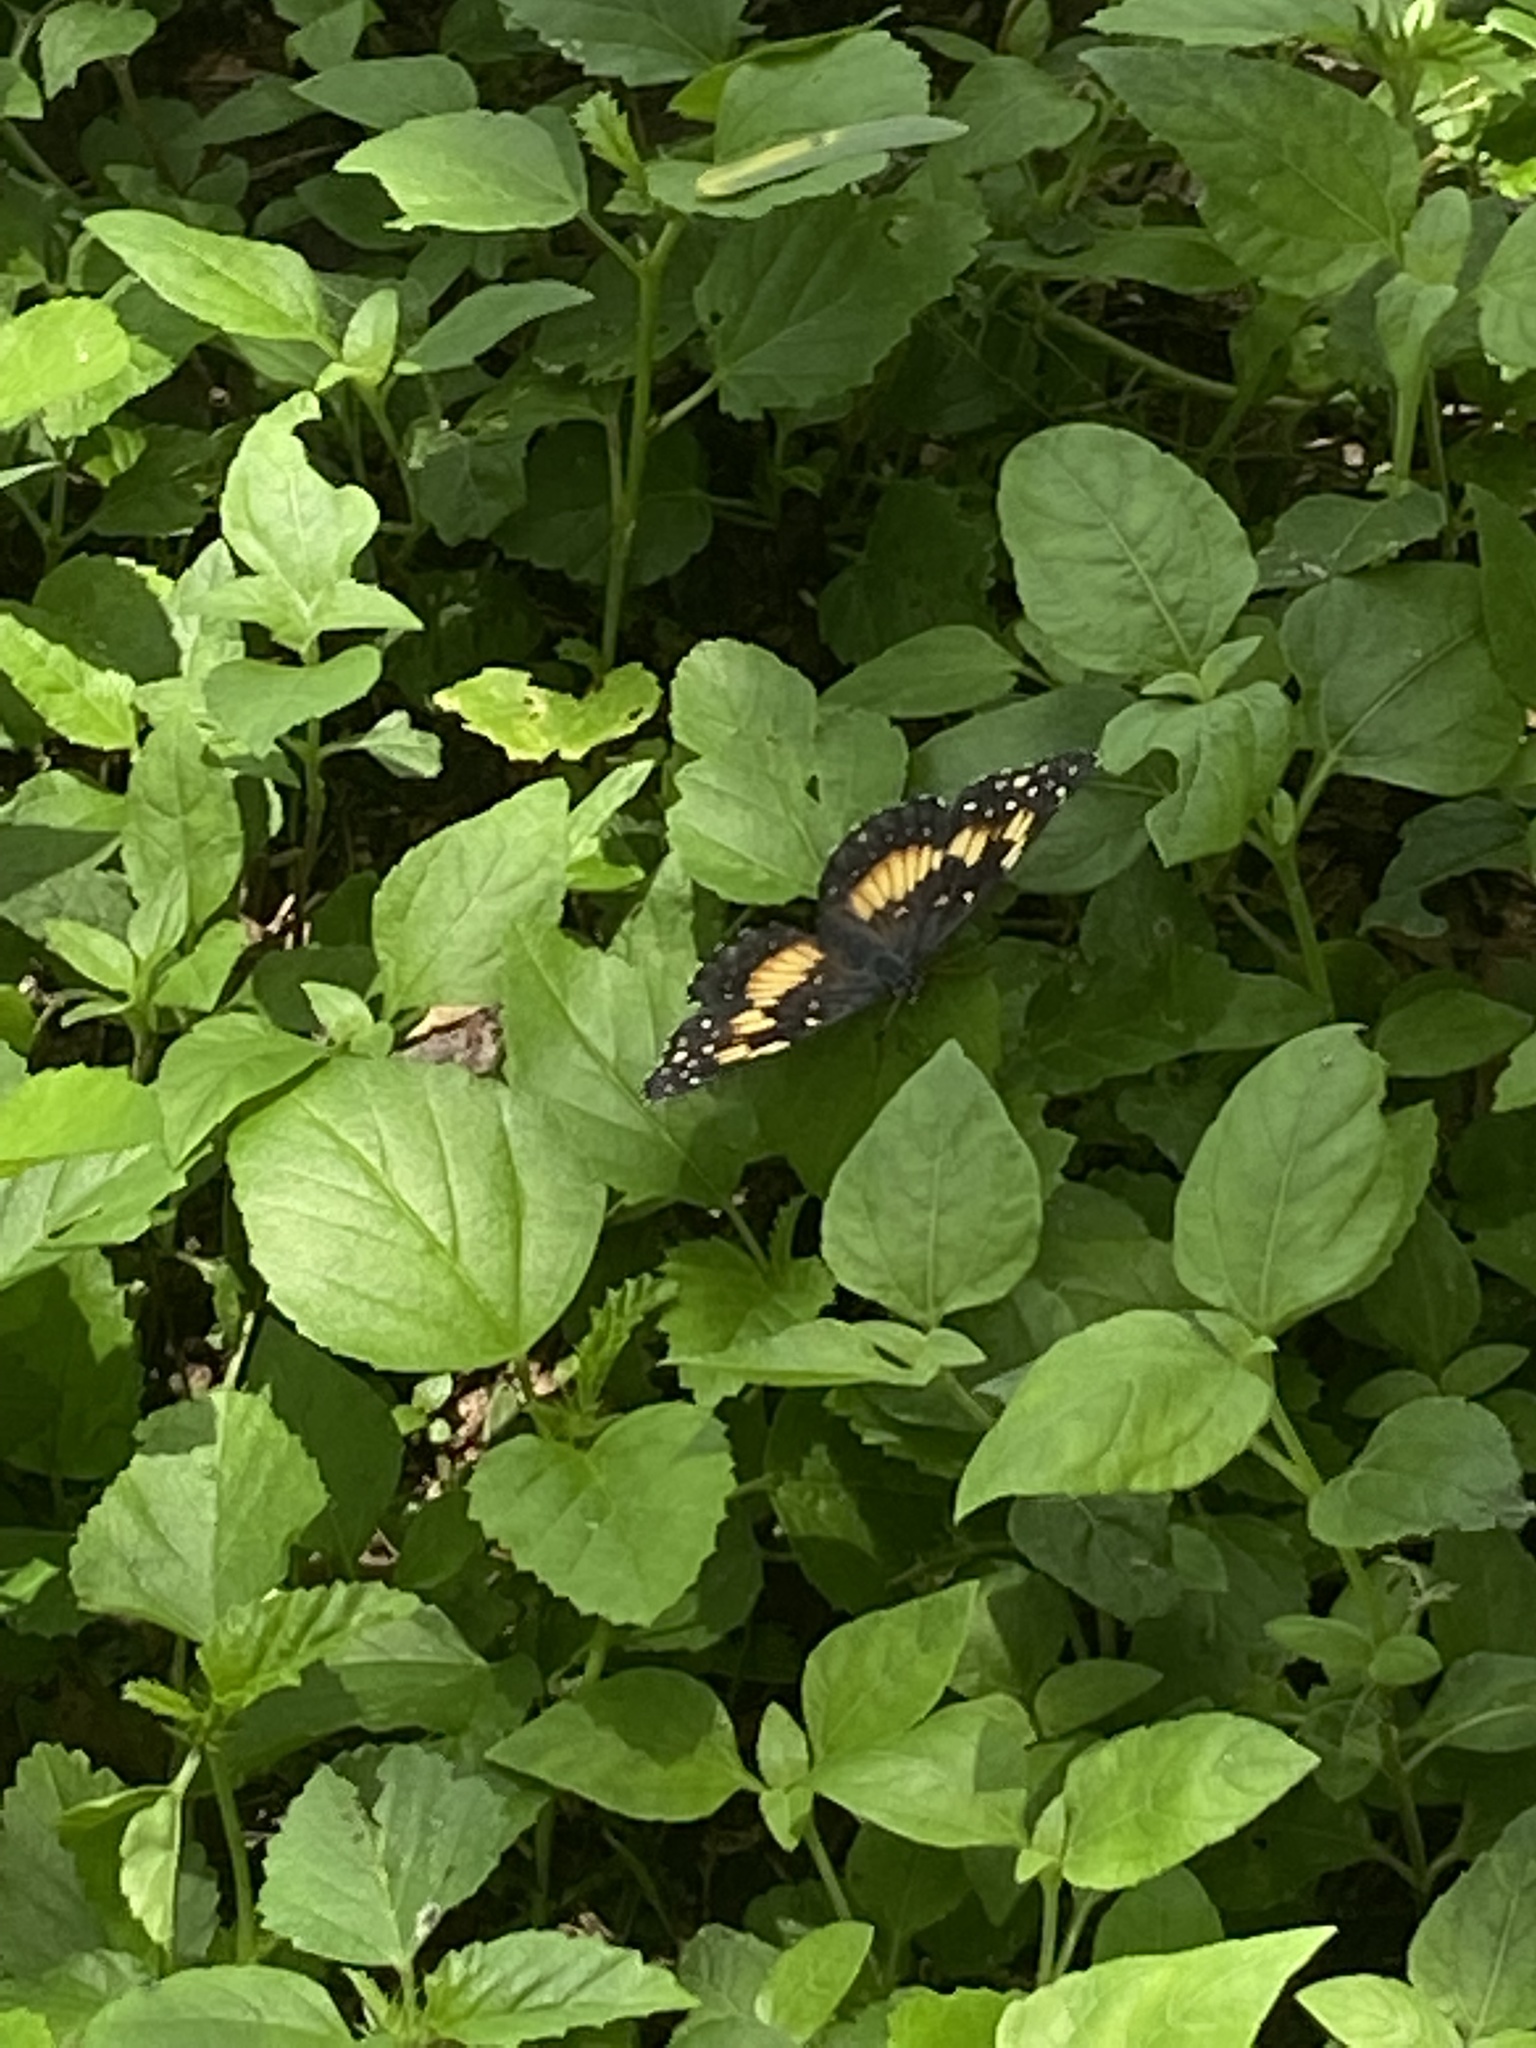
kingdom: Animalia
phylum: Arthropoda
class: Insecta
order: Lepidoptera
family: Nymphalidae
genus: Chlosyne
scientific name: Chlosyne lacinia
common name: Bordered patch
